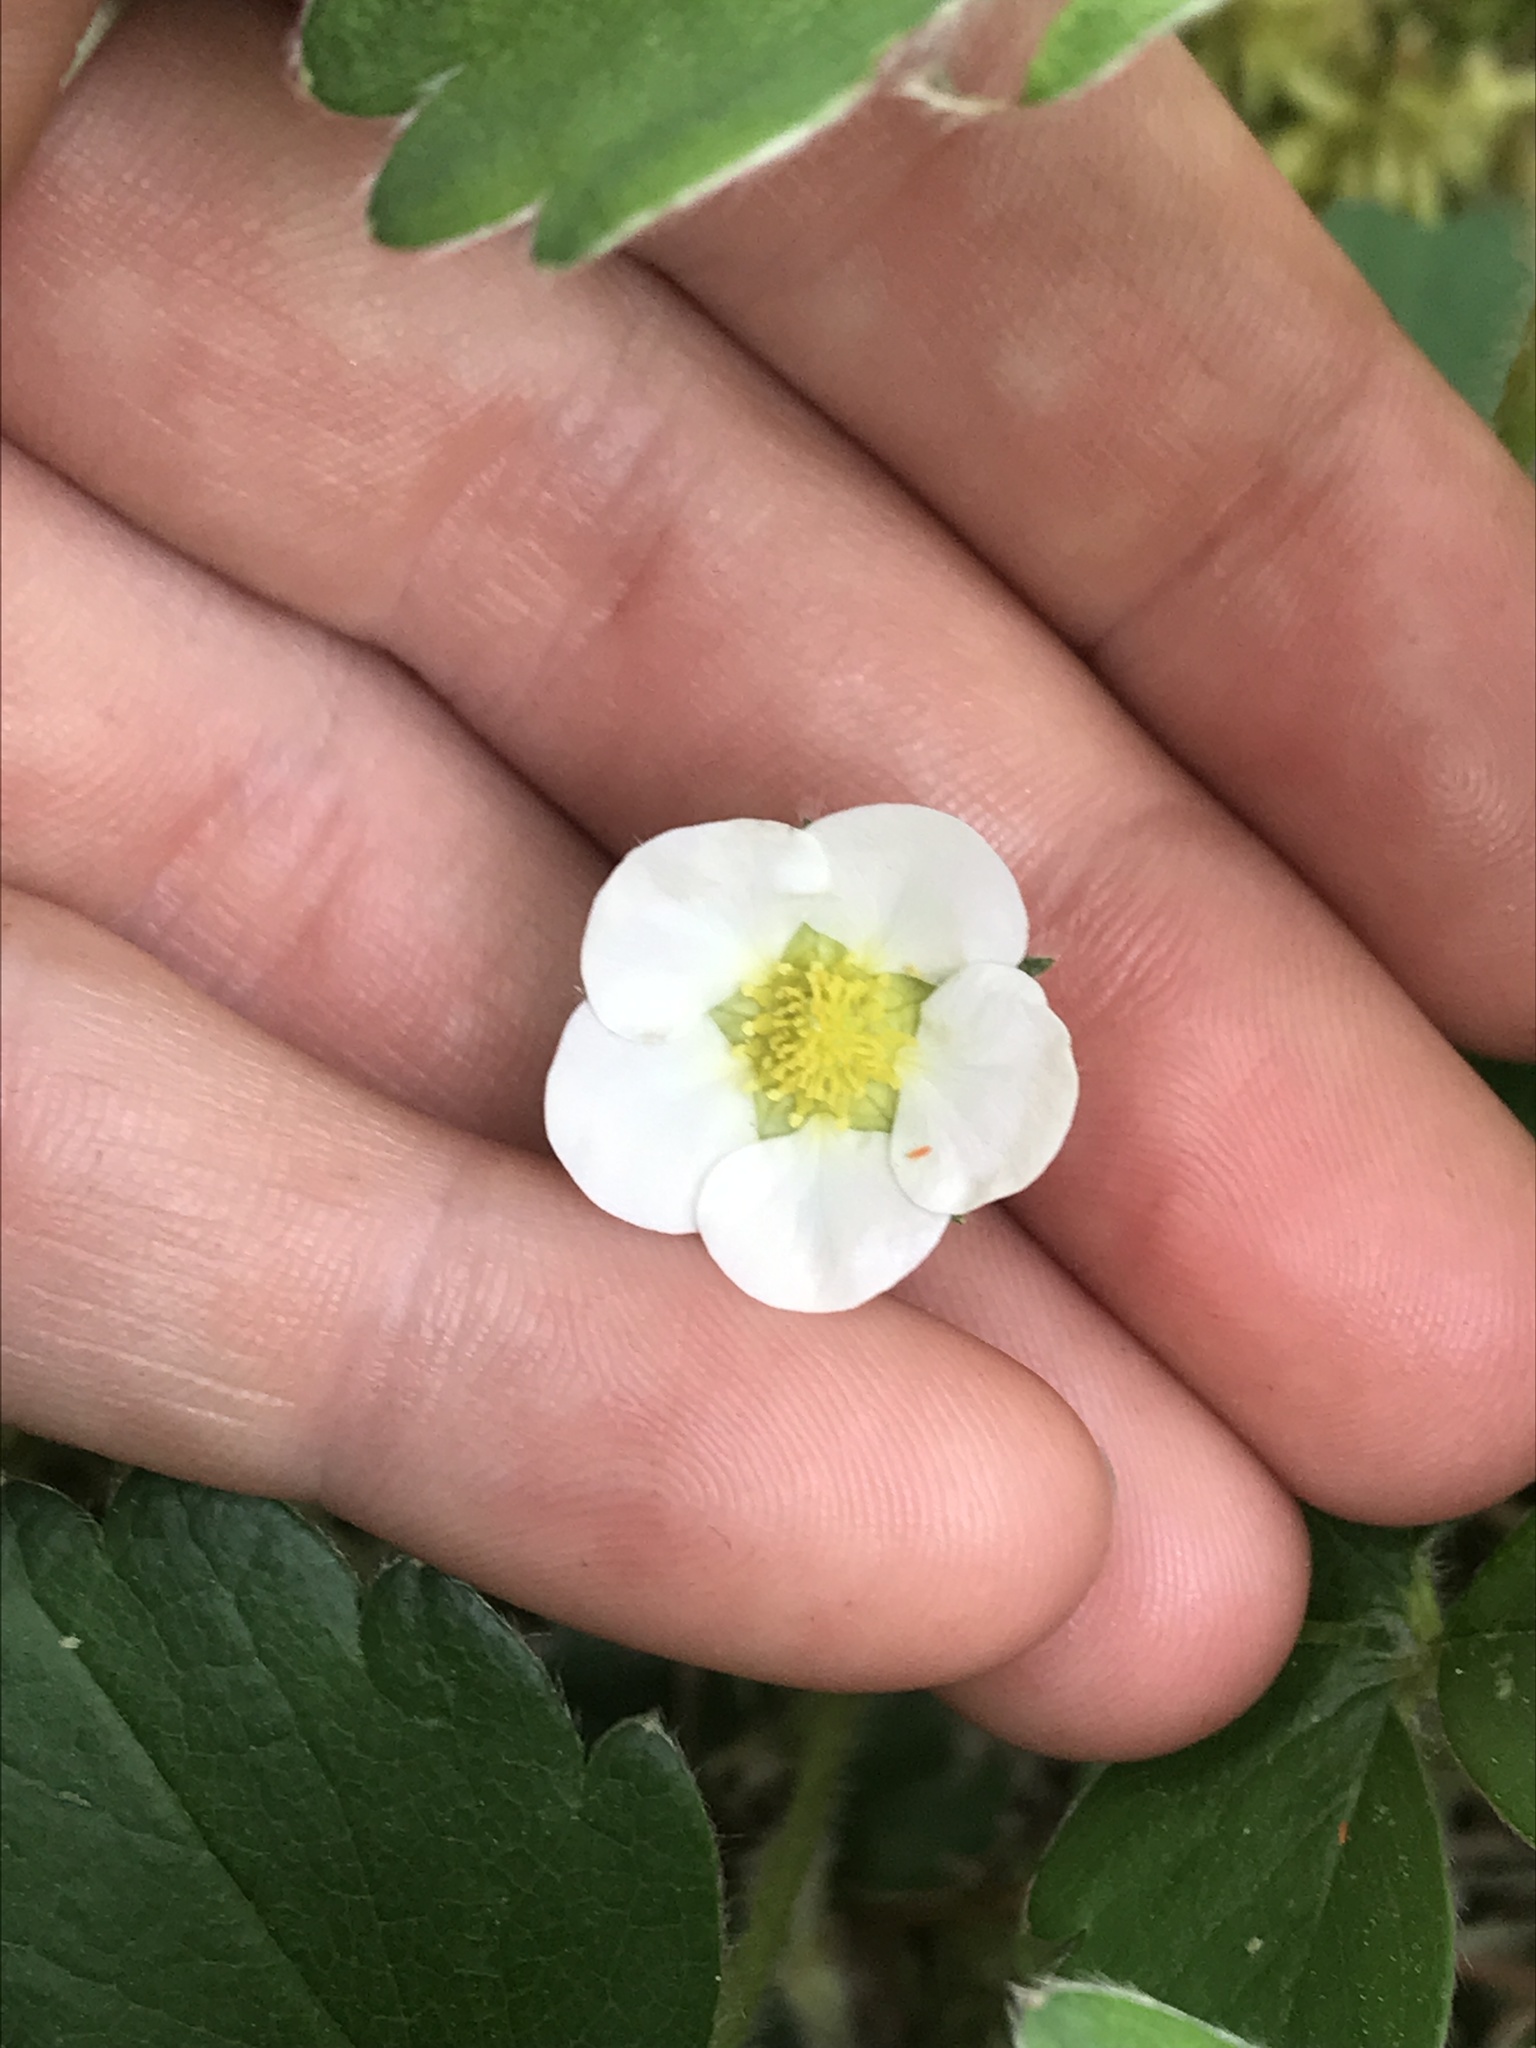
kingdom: Plantae
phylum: Tracheophyta
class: Magnoliopsida
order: Rosales
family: Rosaceae
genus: Fragaria
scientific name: Fragaria vesca
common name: Wild strawberry
